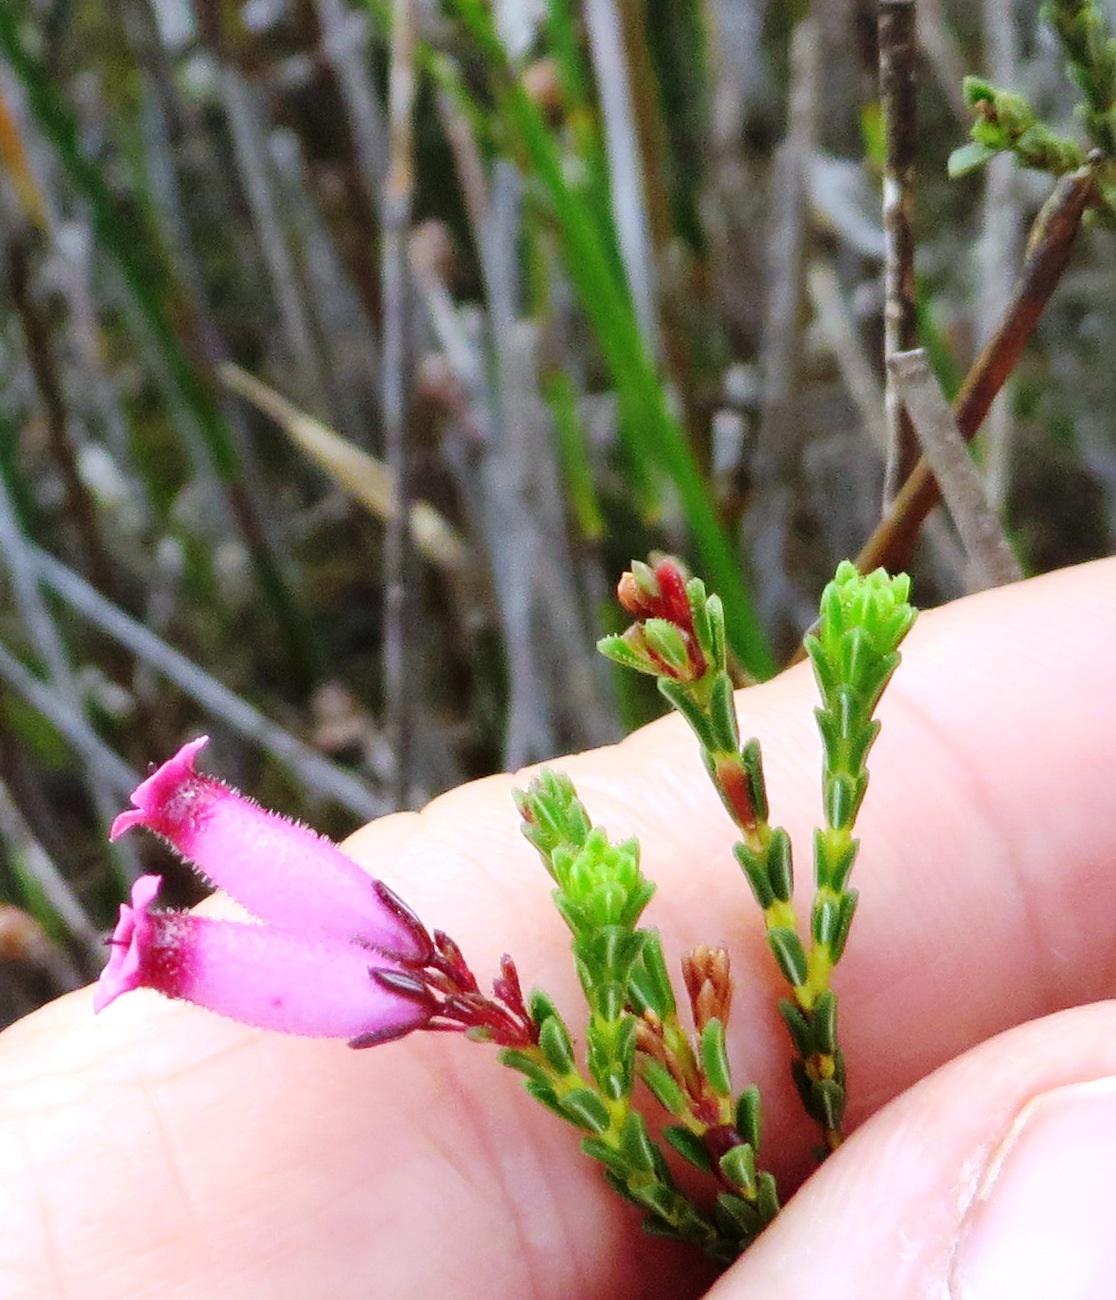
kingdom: Plantae
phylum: Tracheophyta
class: Magnoliopsida
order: Ericales
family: Ericaceae
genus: Erica
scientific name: Erica cristata
